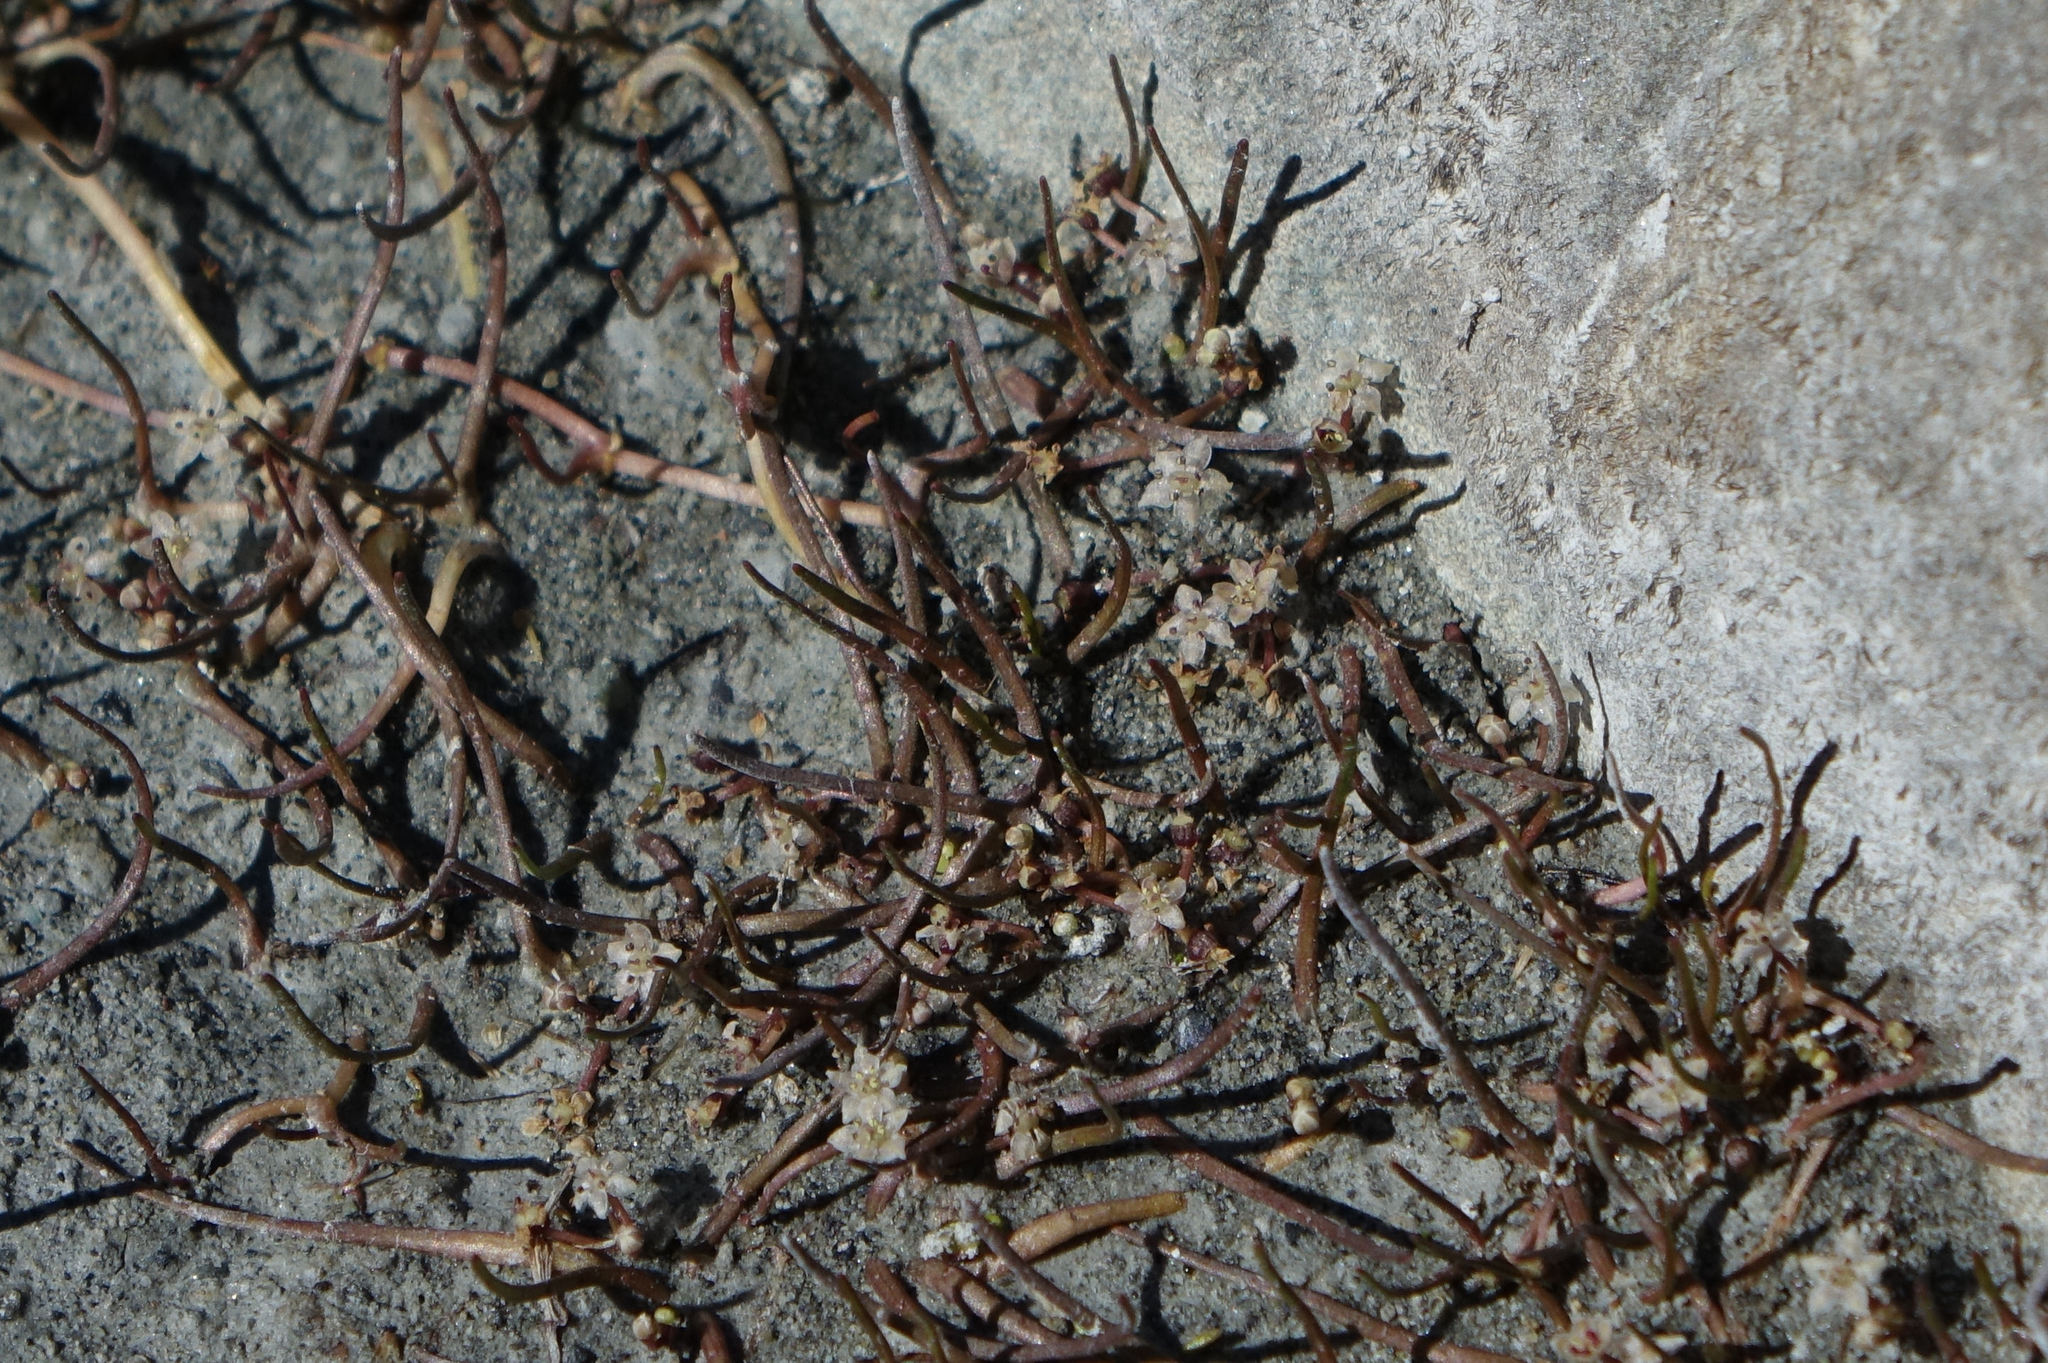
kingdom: Plantae
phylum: Tracheophyta
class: Magnoliopsida
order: Apiales
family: Apiaceae
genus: Lilaeopsis
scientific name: Lilaeopsis ruthiana
